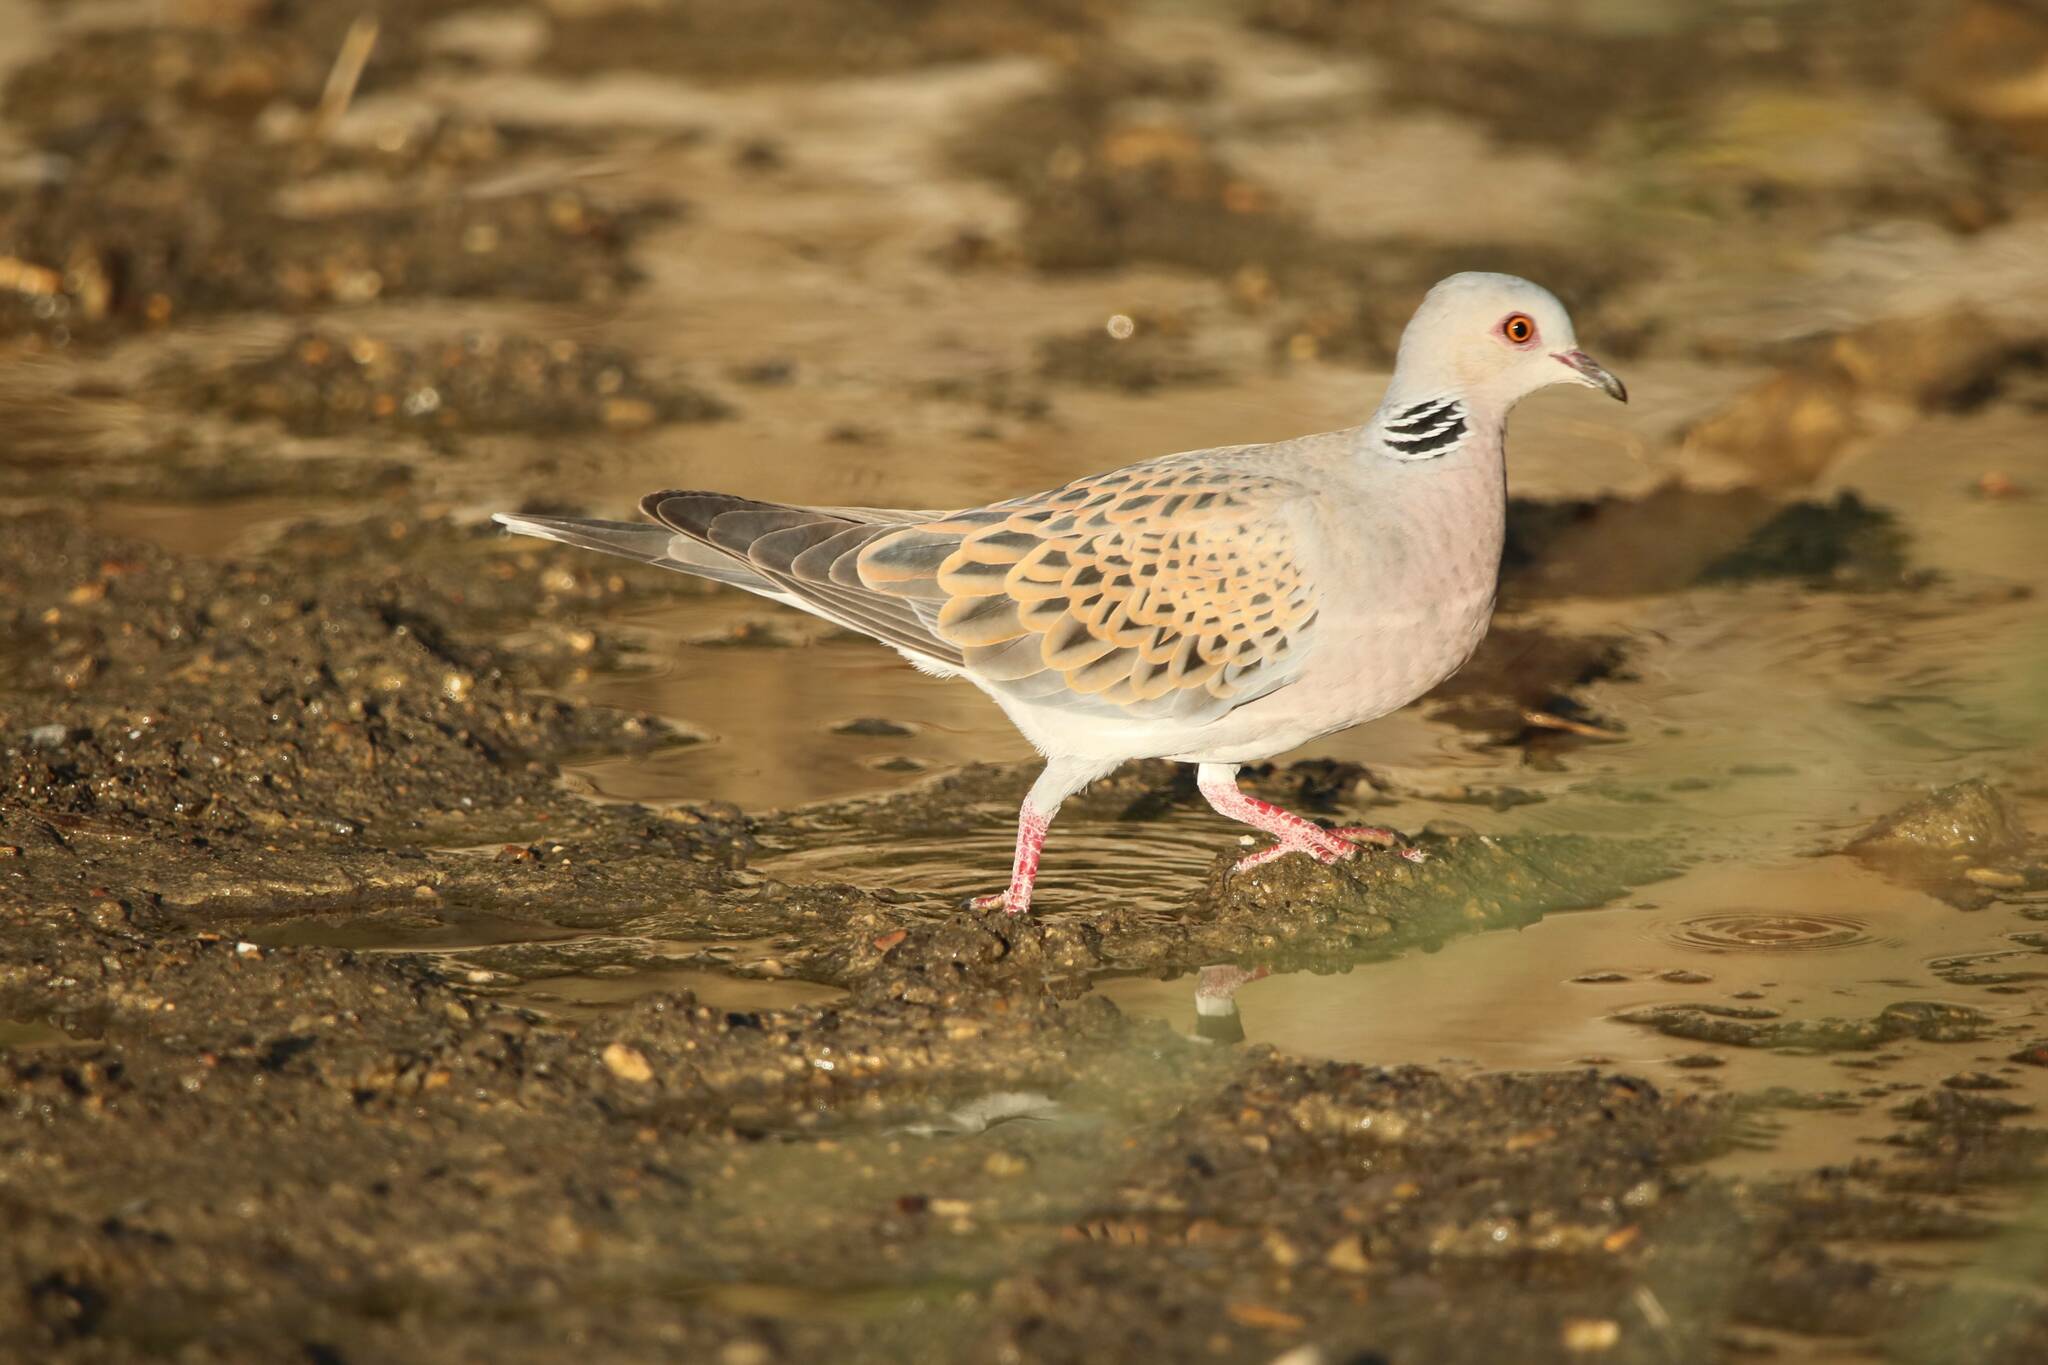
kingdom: Animalia
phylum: Chordata
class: Aves
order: Columbiformes
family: Columbidae
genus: Streptopelia
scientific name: Streptopelia turtur
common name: European turtle dove
